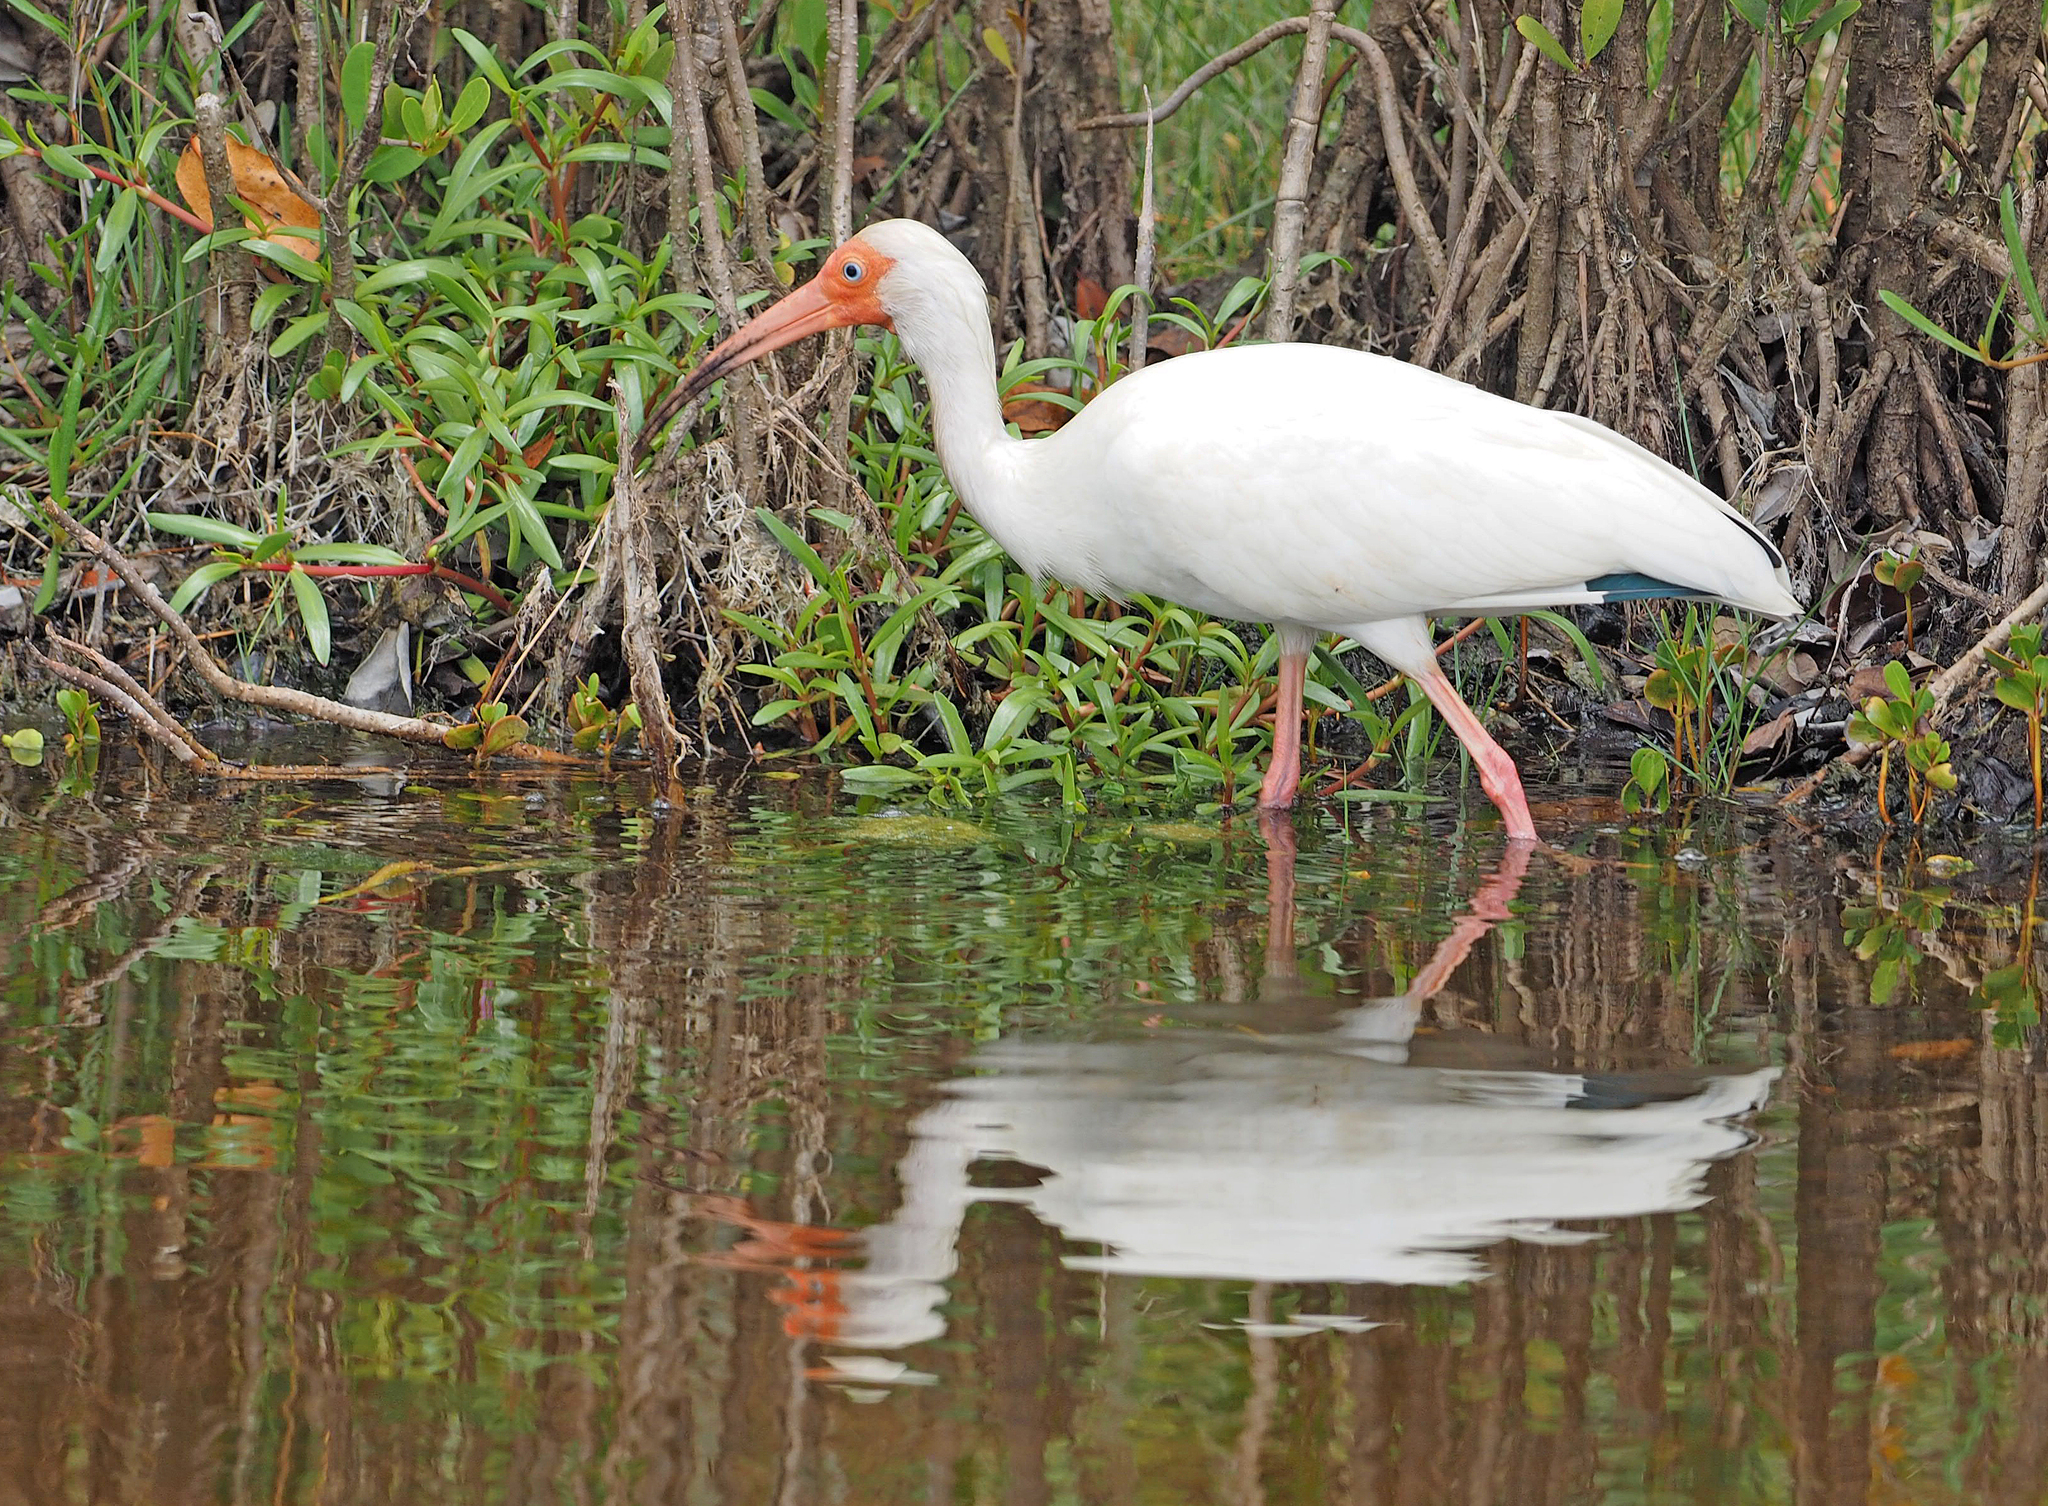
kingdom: Animalia
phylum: Chordata
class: Aves
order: Pelecaniformes
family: Threskiornithidae
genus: Eudocimus
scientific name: Eudocimus albus
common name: White ibis
